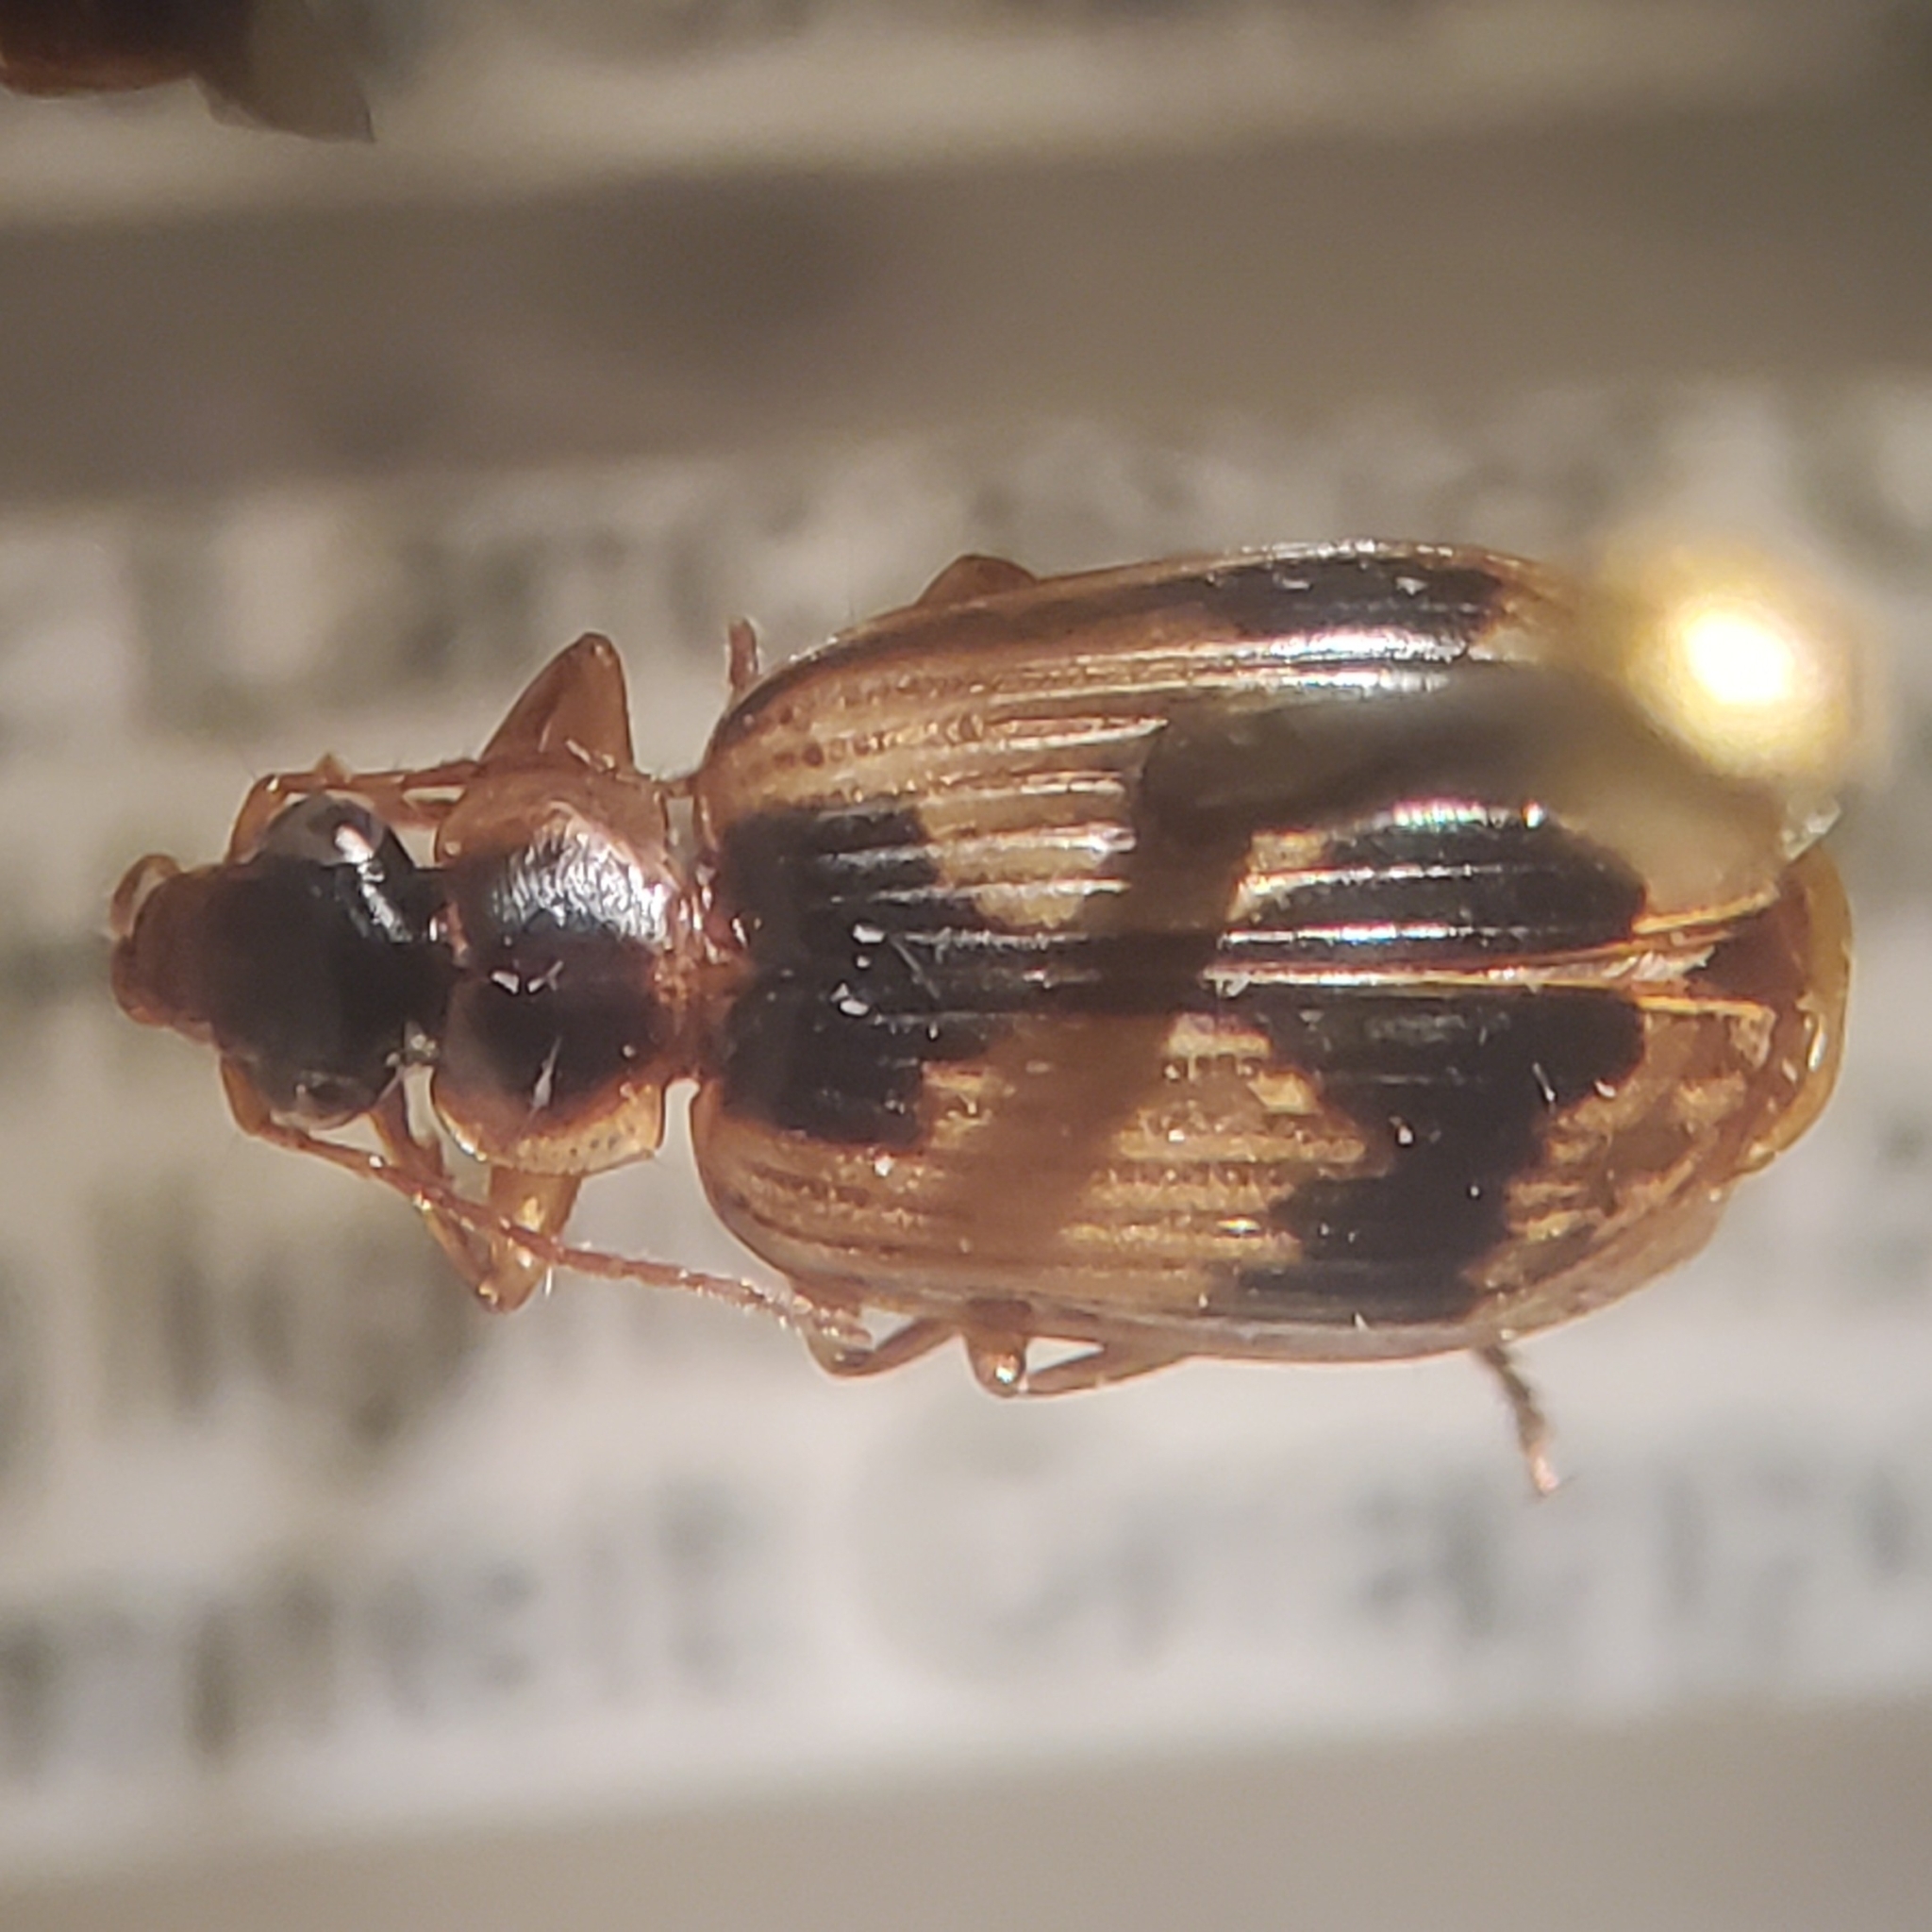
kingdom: Animalia
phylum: Arthropoda
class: Insecta
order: Coleoptera
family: Carabidae
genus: Lebia
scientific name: Lebia fuscata
